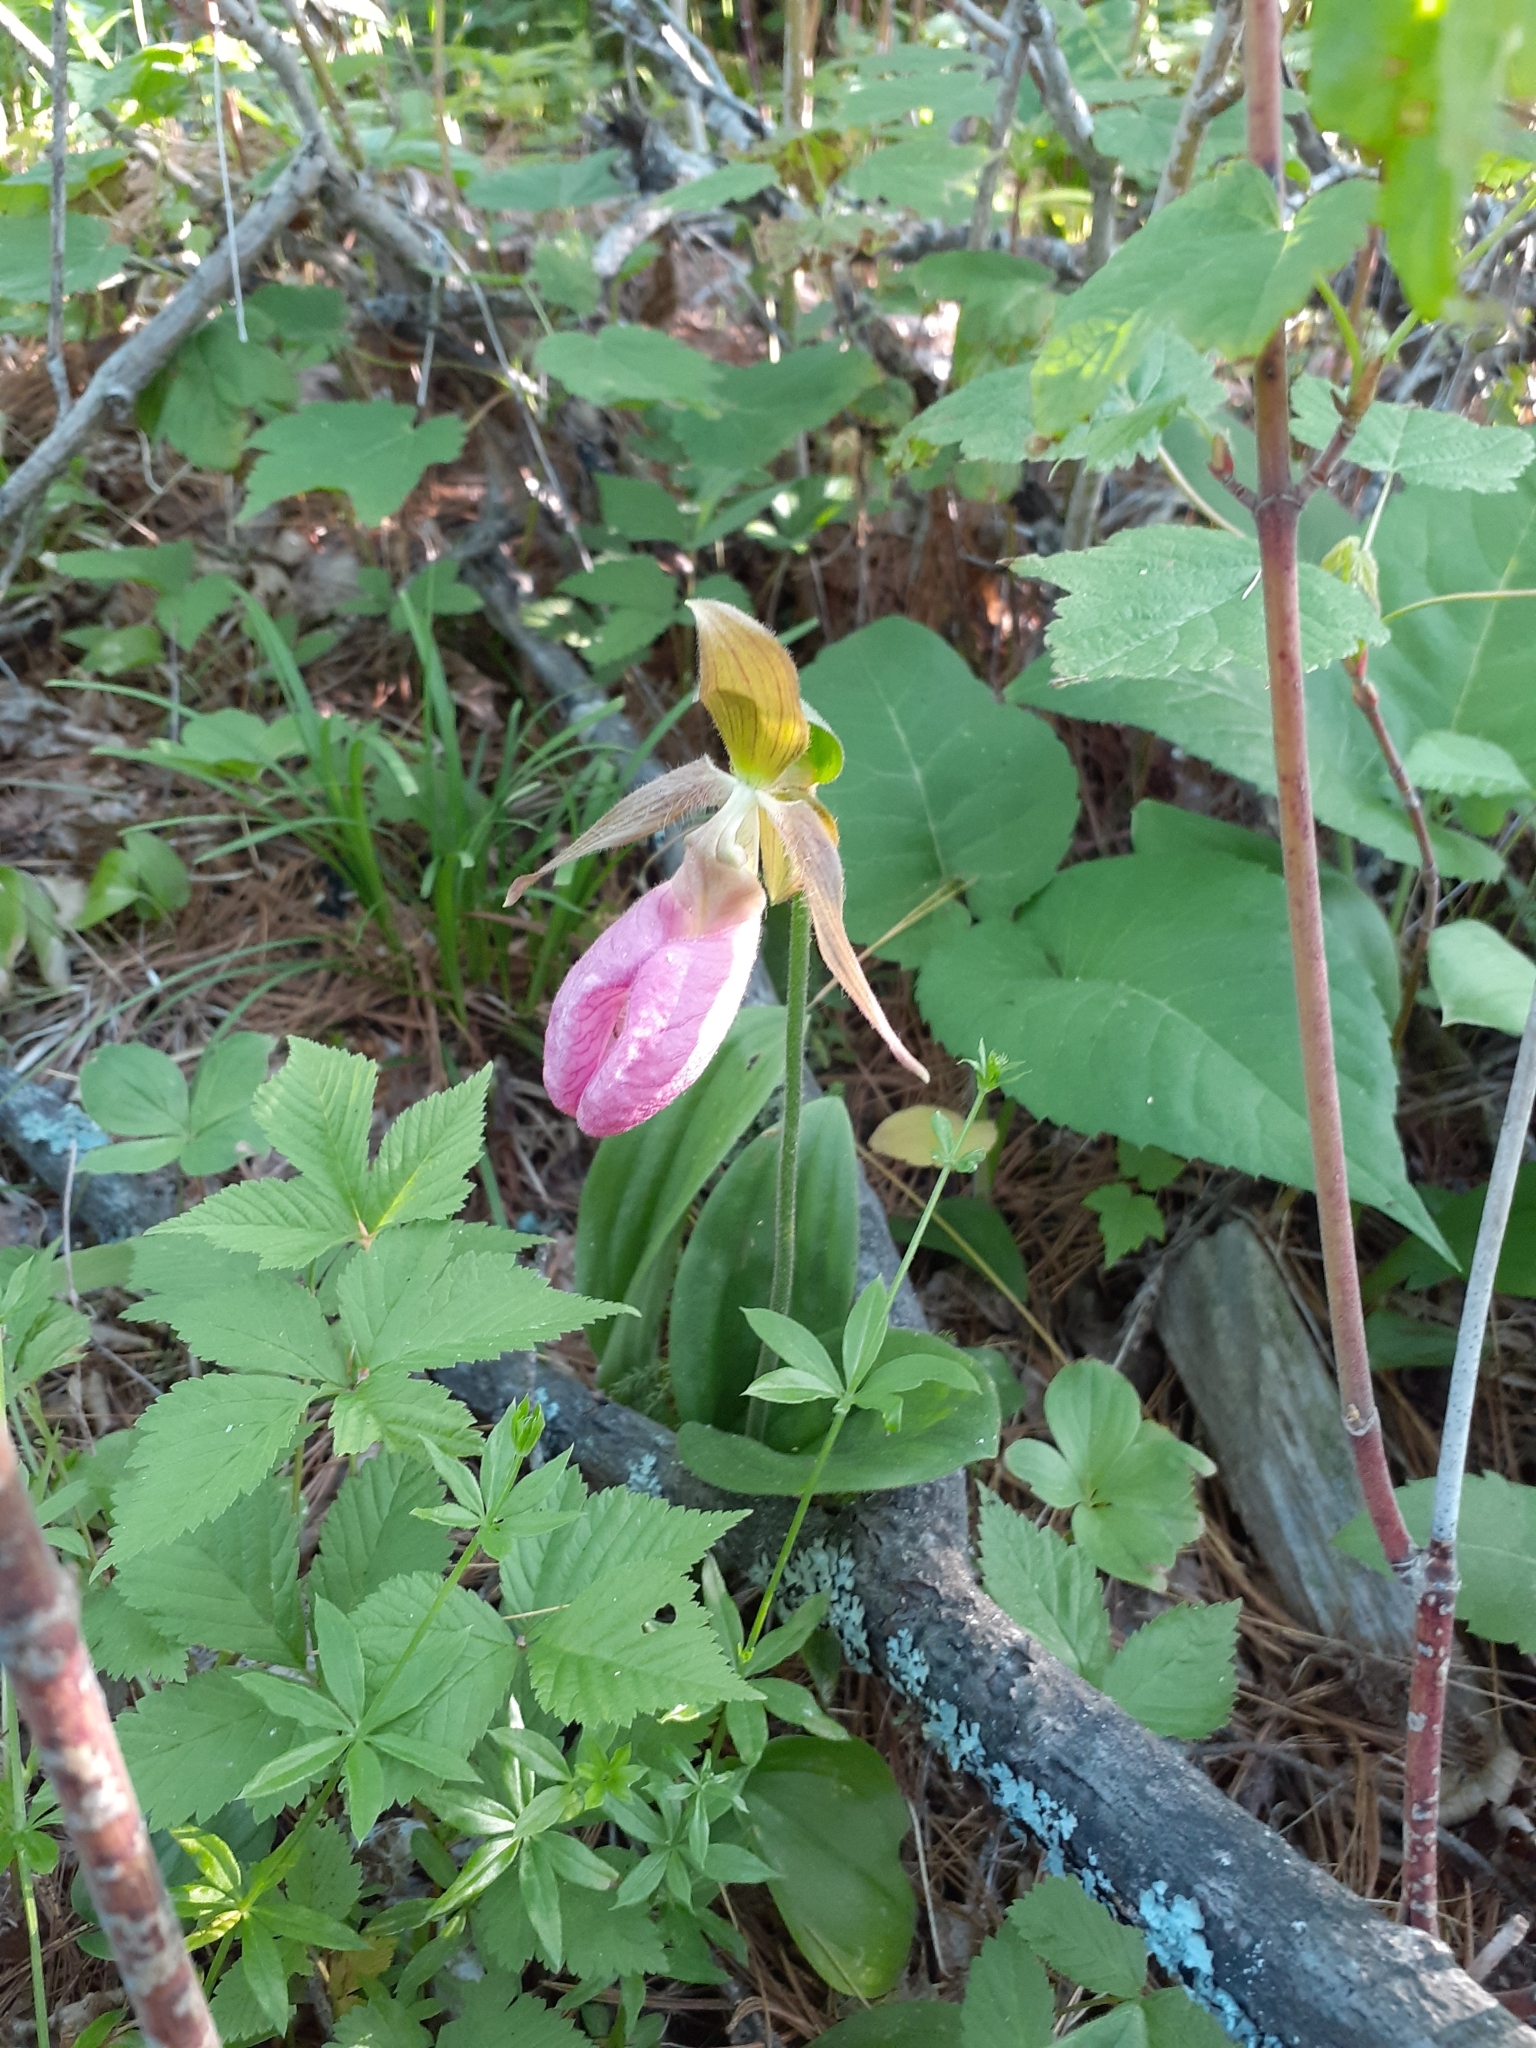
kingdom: Plantae
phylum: Tracheophyta
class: Liliopsida
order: Asparagales
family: Orchidaceae
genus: Cypripedium
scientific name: Cypripedium acaule
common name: Pink lady's-slipper
